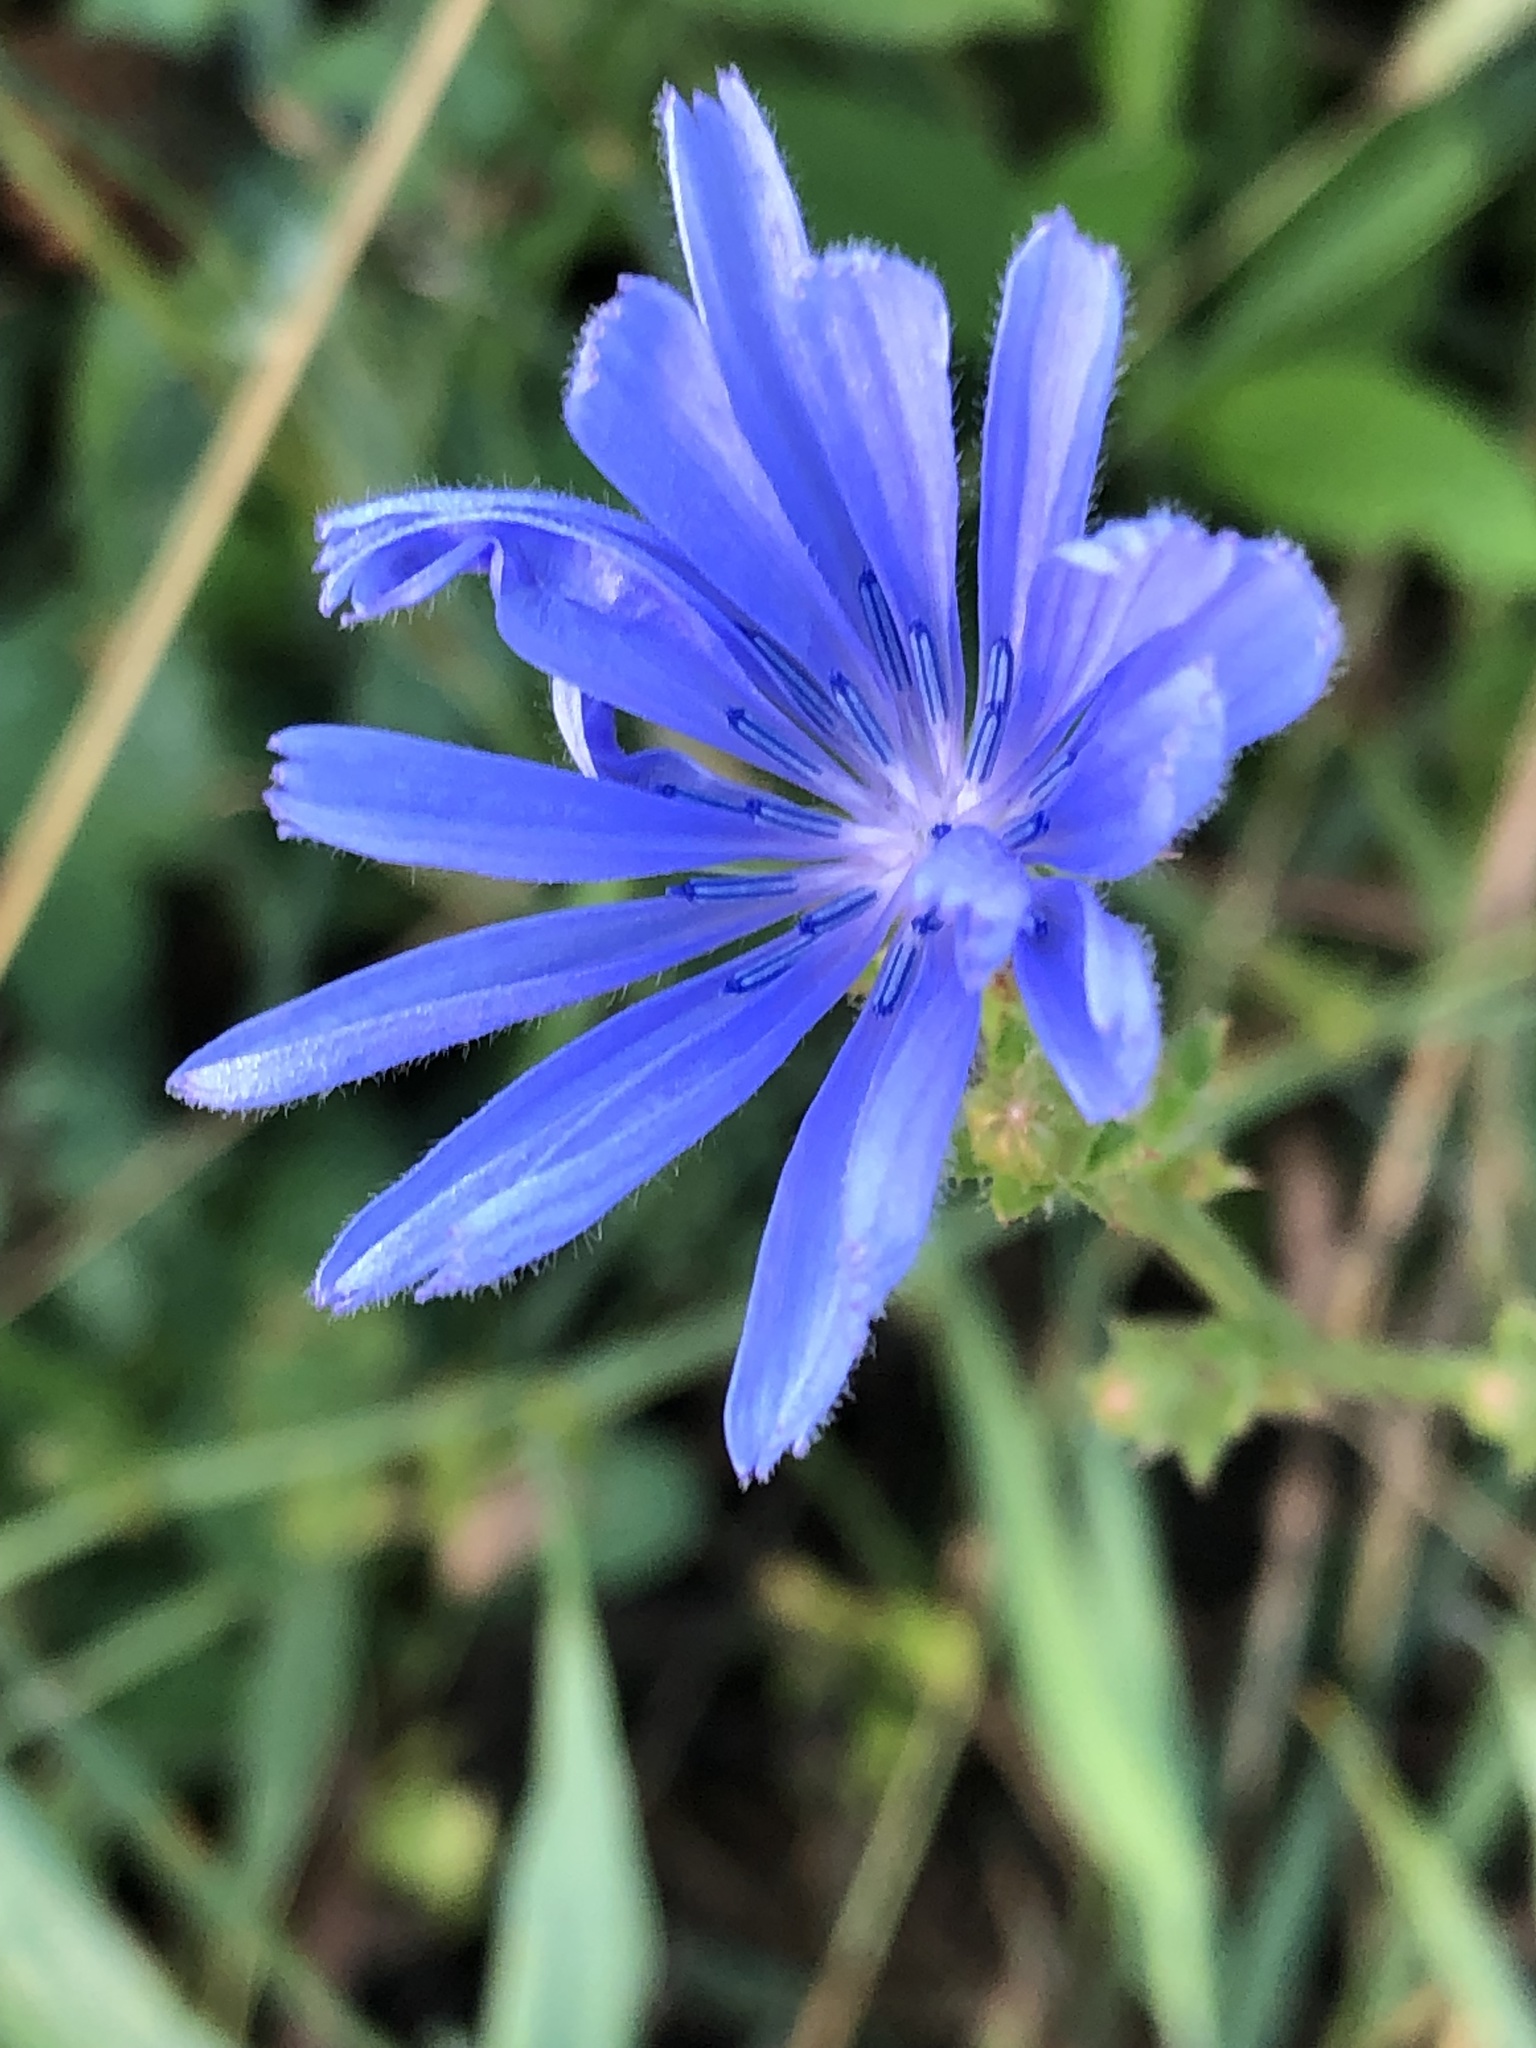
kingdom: Plantae
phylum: Tracheophyta
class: Magnoliopsida
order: Asterales
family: Asteraceae
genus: Cichorium
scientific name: Cichorium intybus
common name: Chicory
